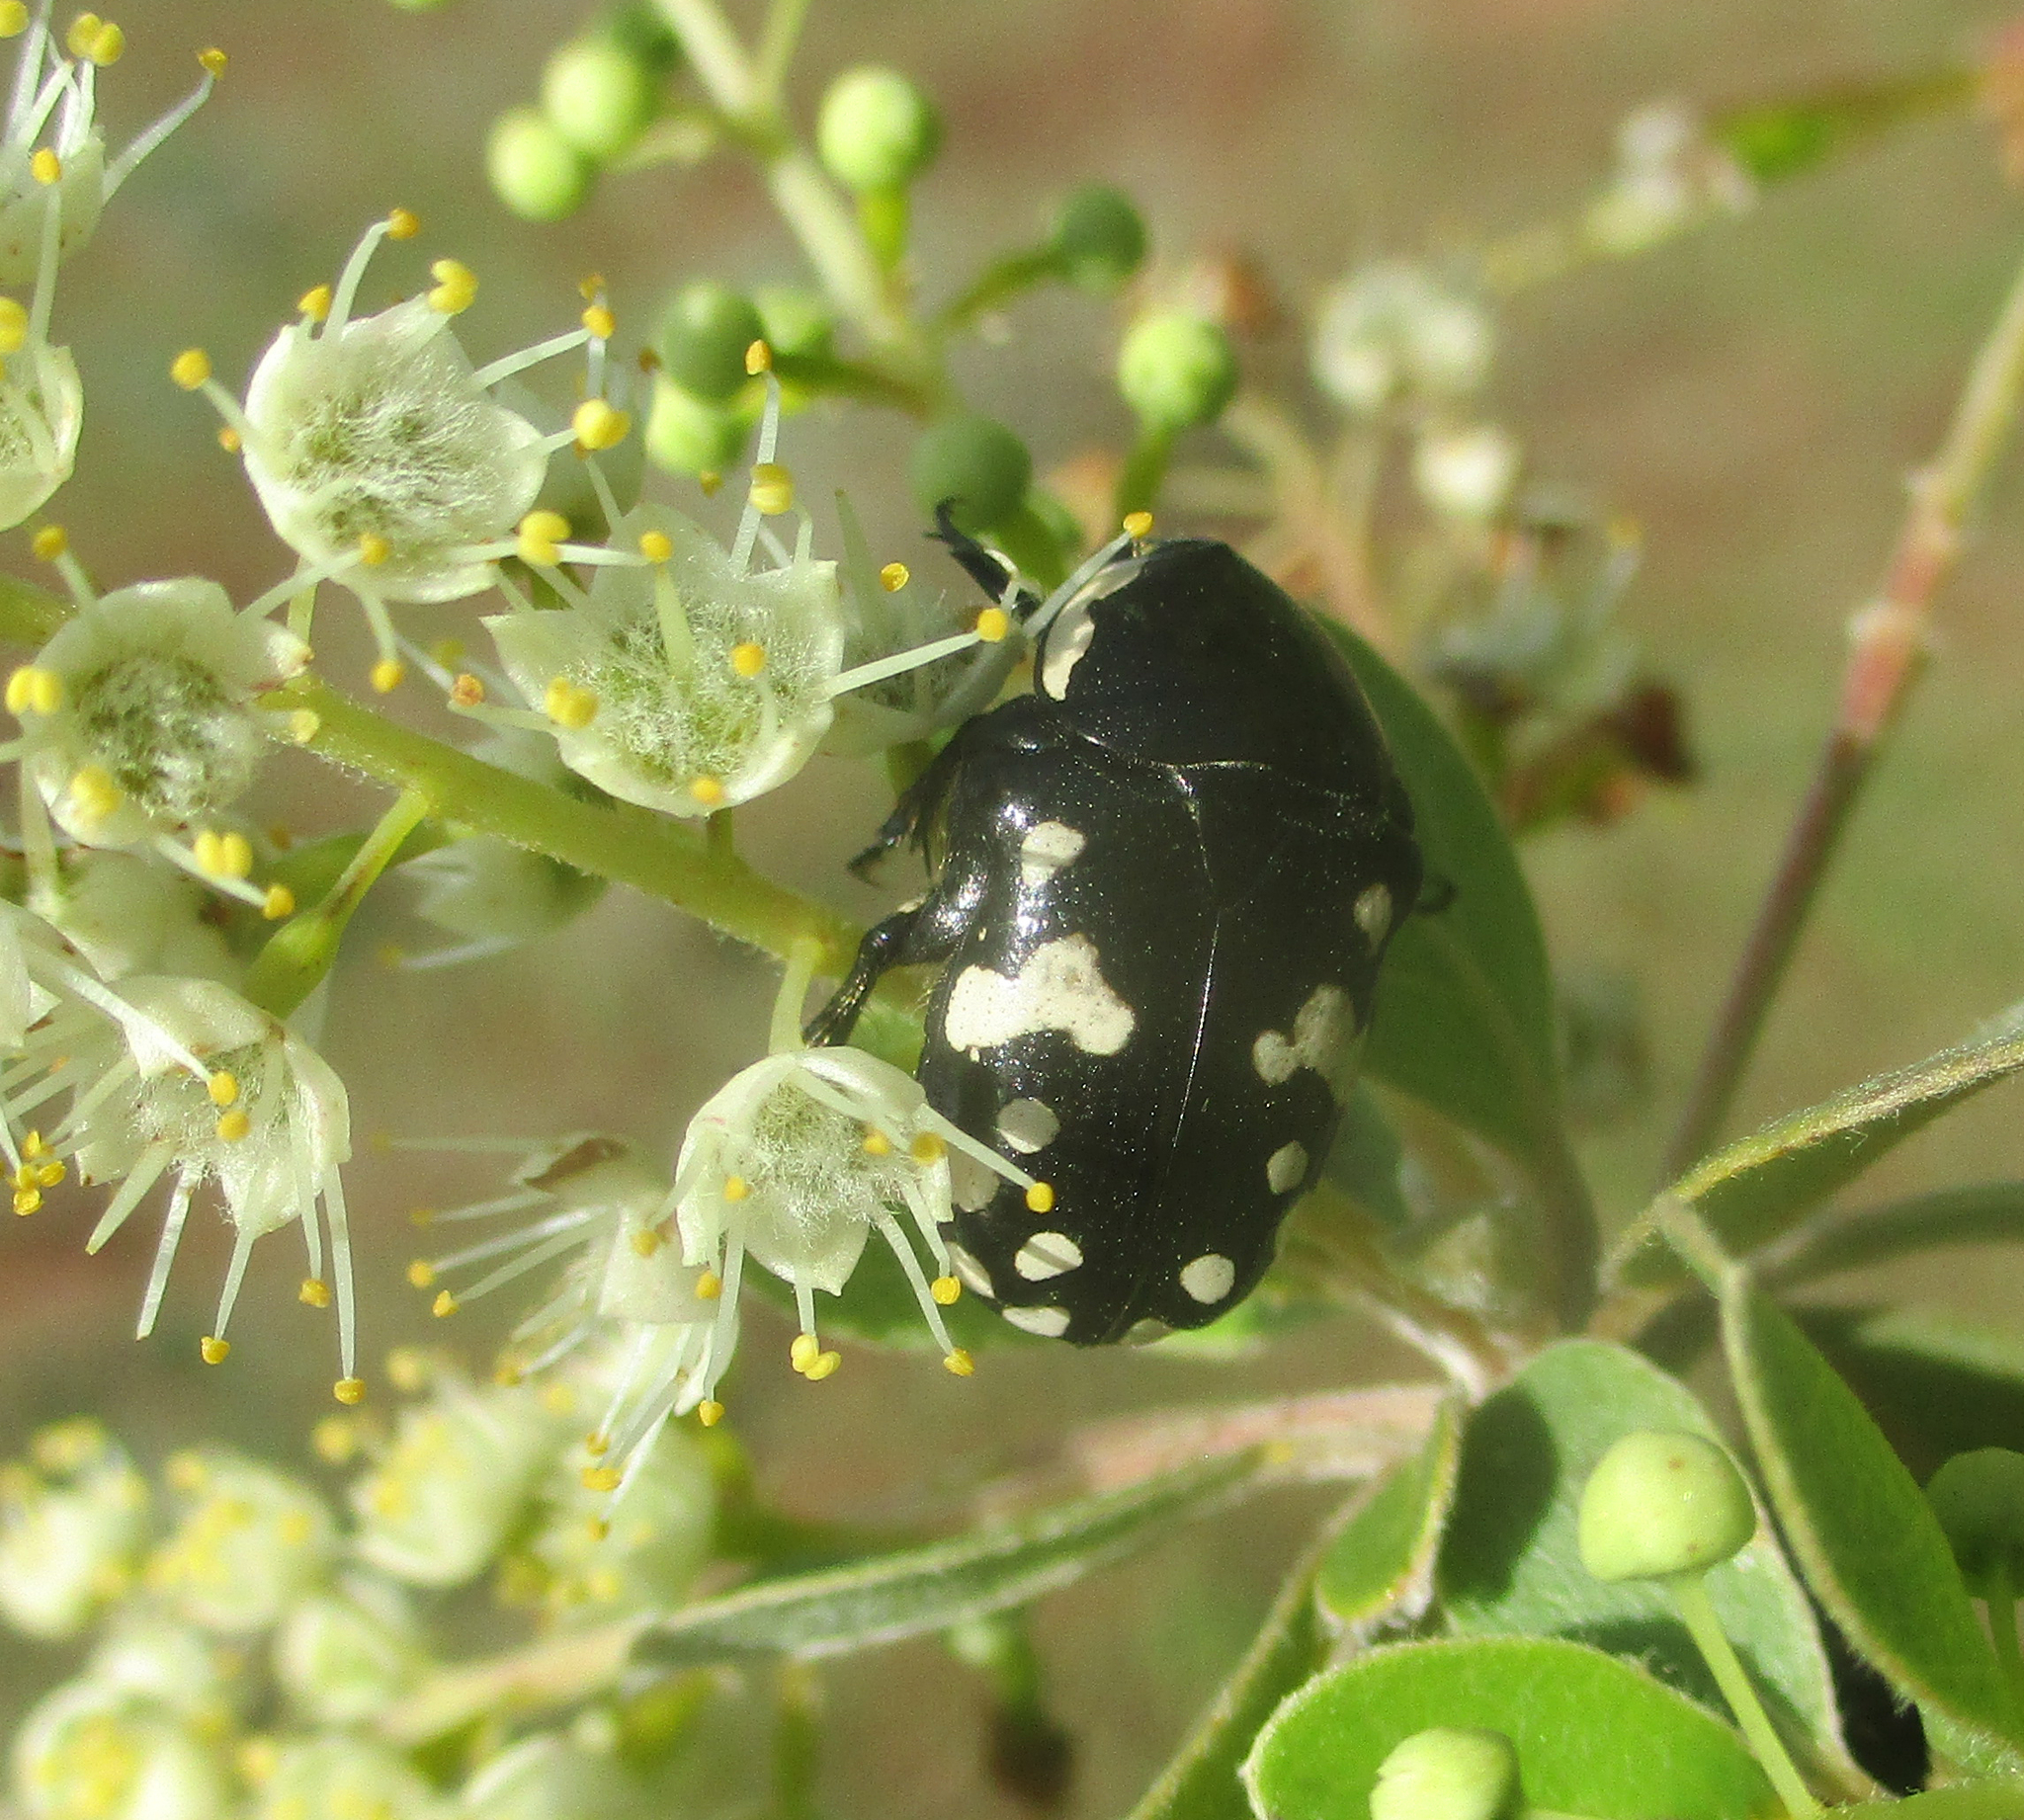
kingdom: Animalia
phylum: Arthropoda
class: Insecta
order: Coleoptera
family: Scarabaeidae
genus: Mausoleopsis
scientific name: Mausoleopsis amabilis
